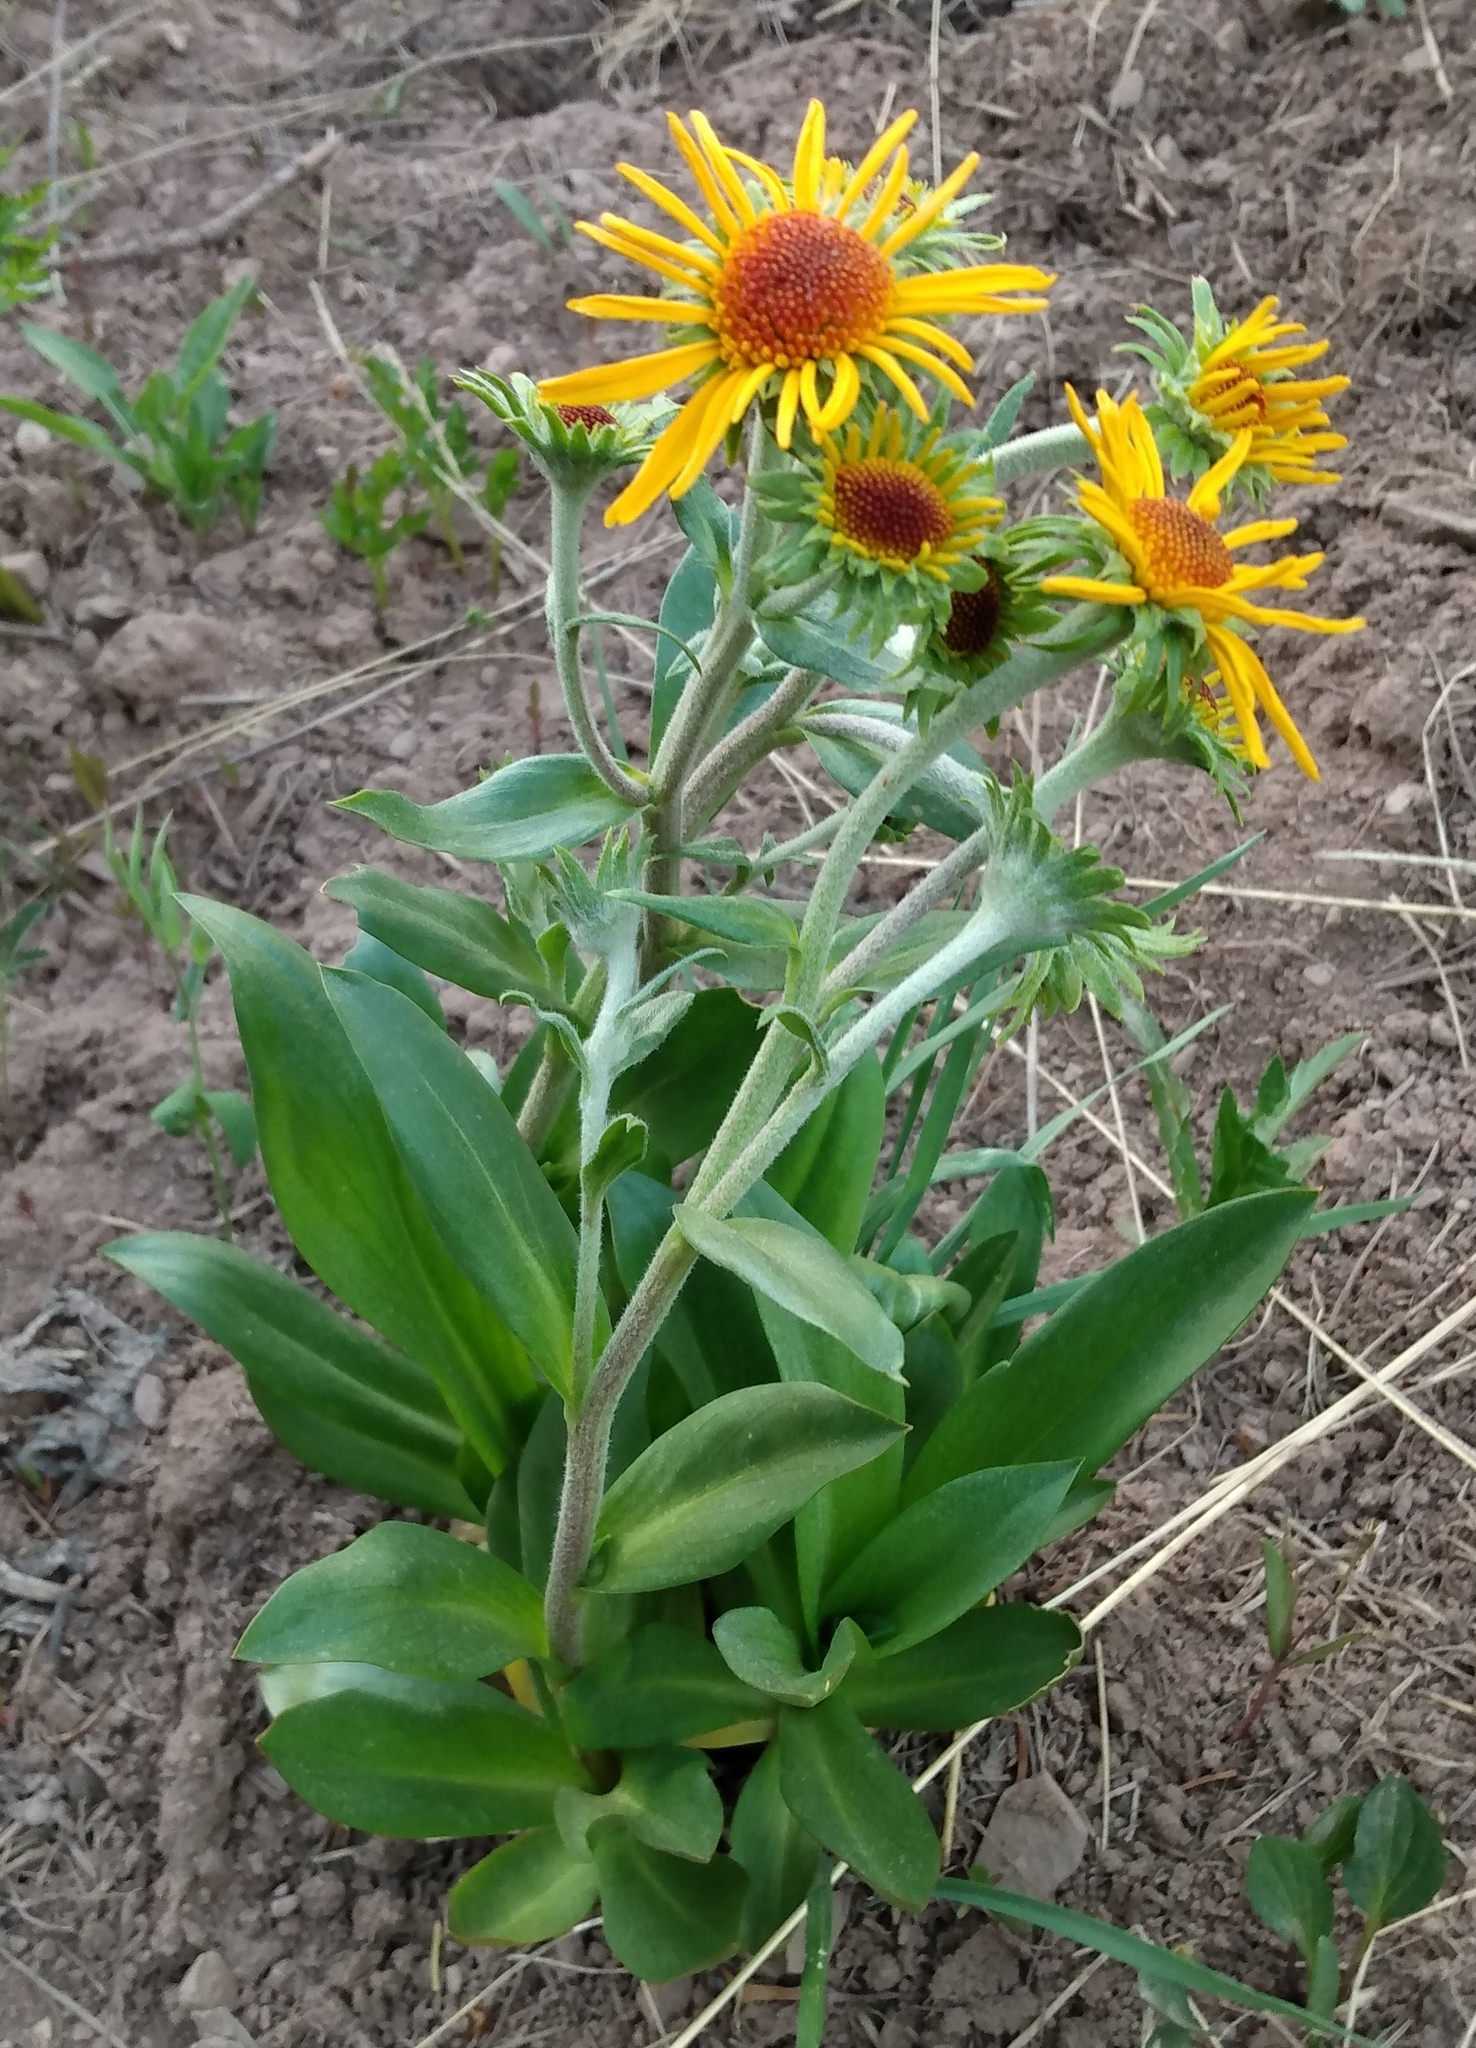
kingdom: Plantae
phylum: Tracheophyta
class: Magnoliopsida
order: Asterales
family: Asteraceae
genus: Hymenoxys
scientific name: Hymenoxys hoopesii
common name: Orange-sneezeweed
